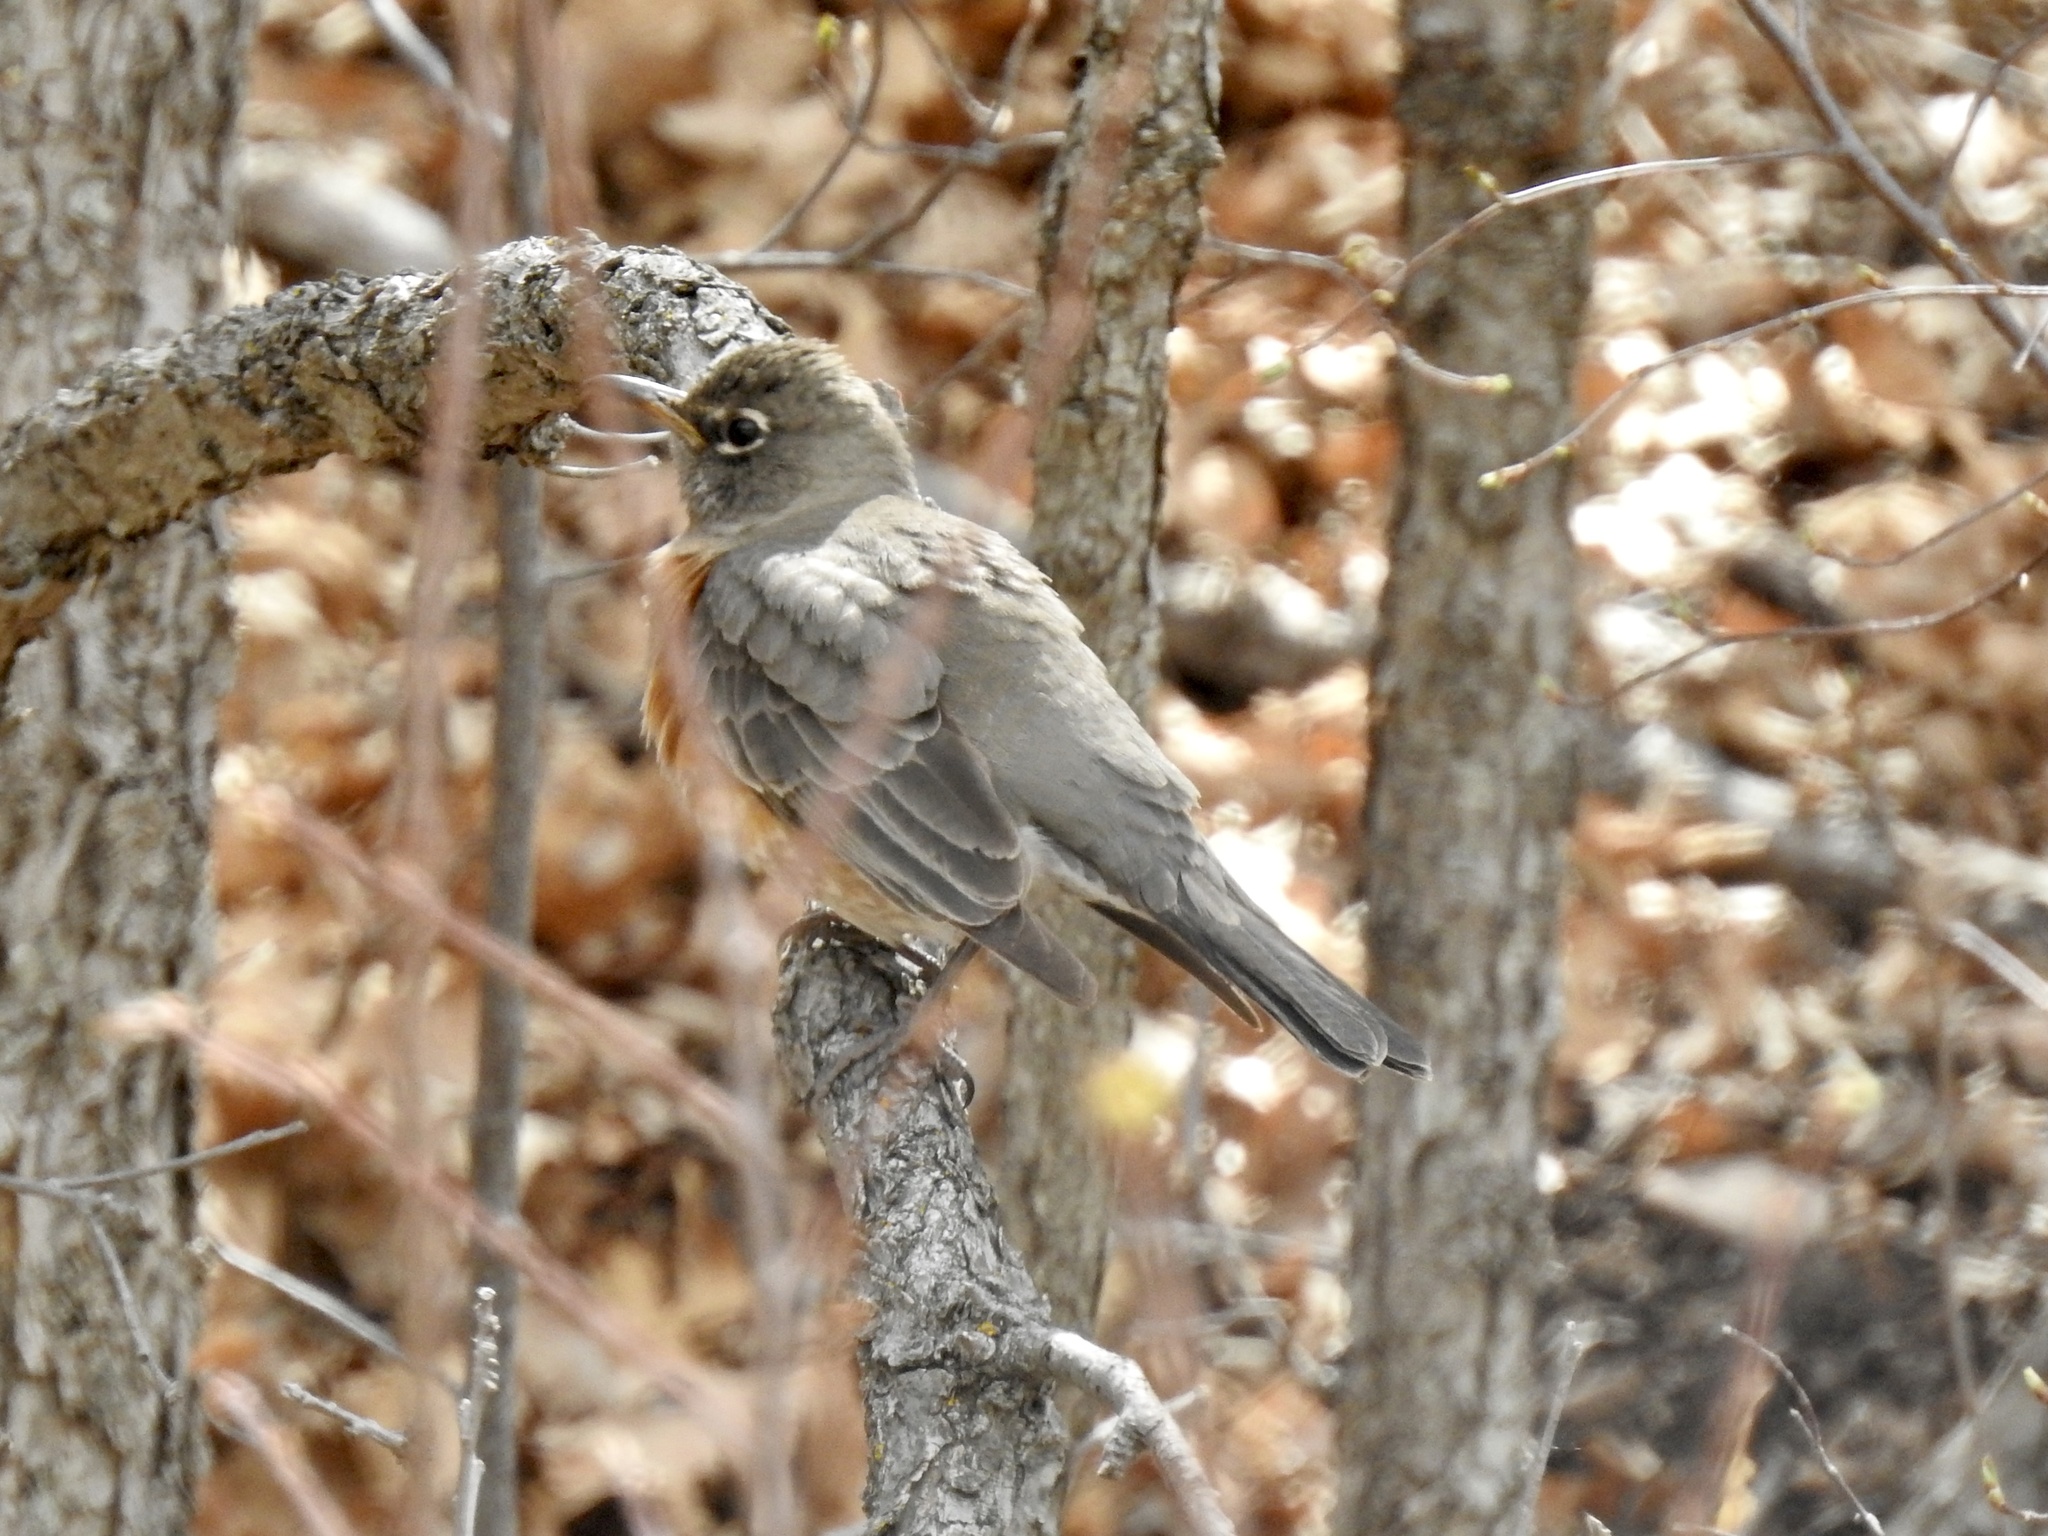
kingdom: Animalia
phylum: Chordata
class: Aves
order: Passeriformes
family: Turdidae
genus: Turdus
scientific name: Turdus migratorius
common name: American robin
